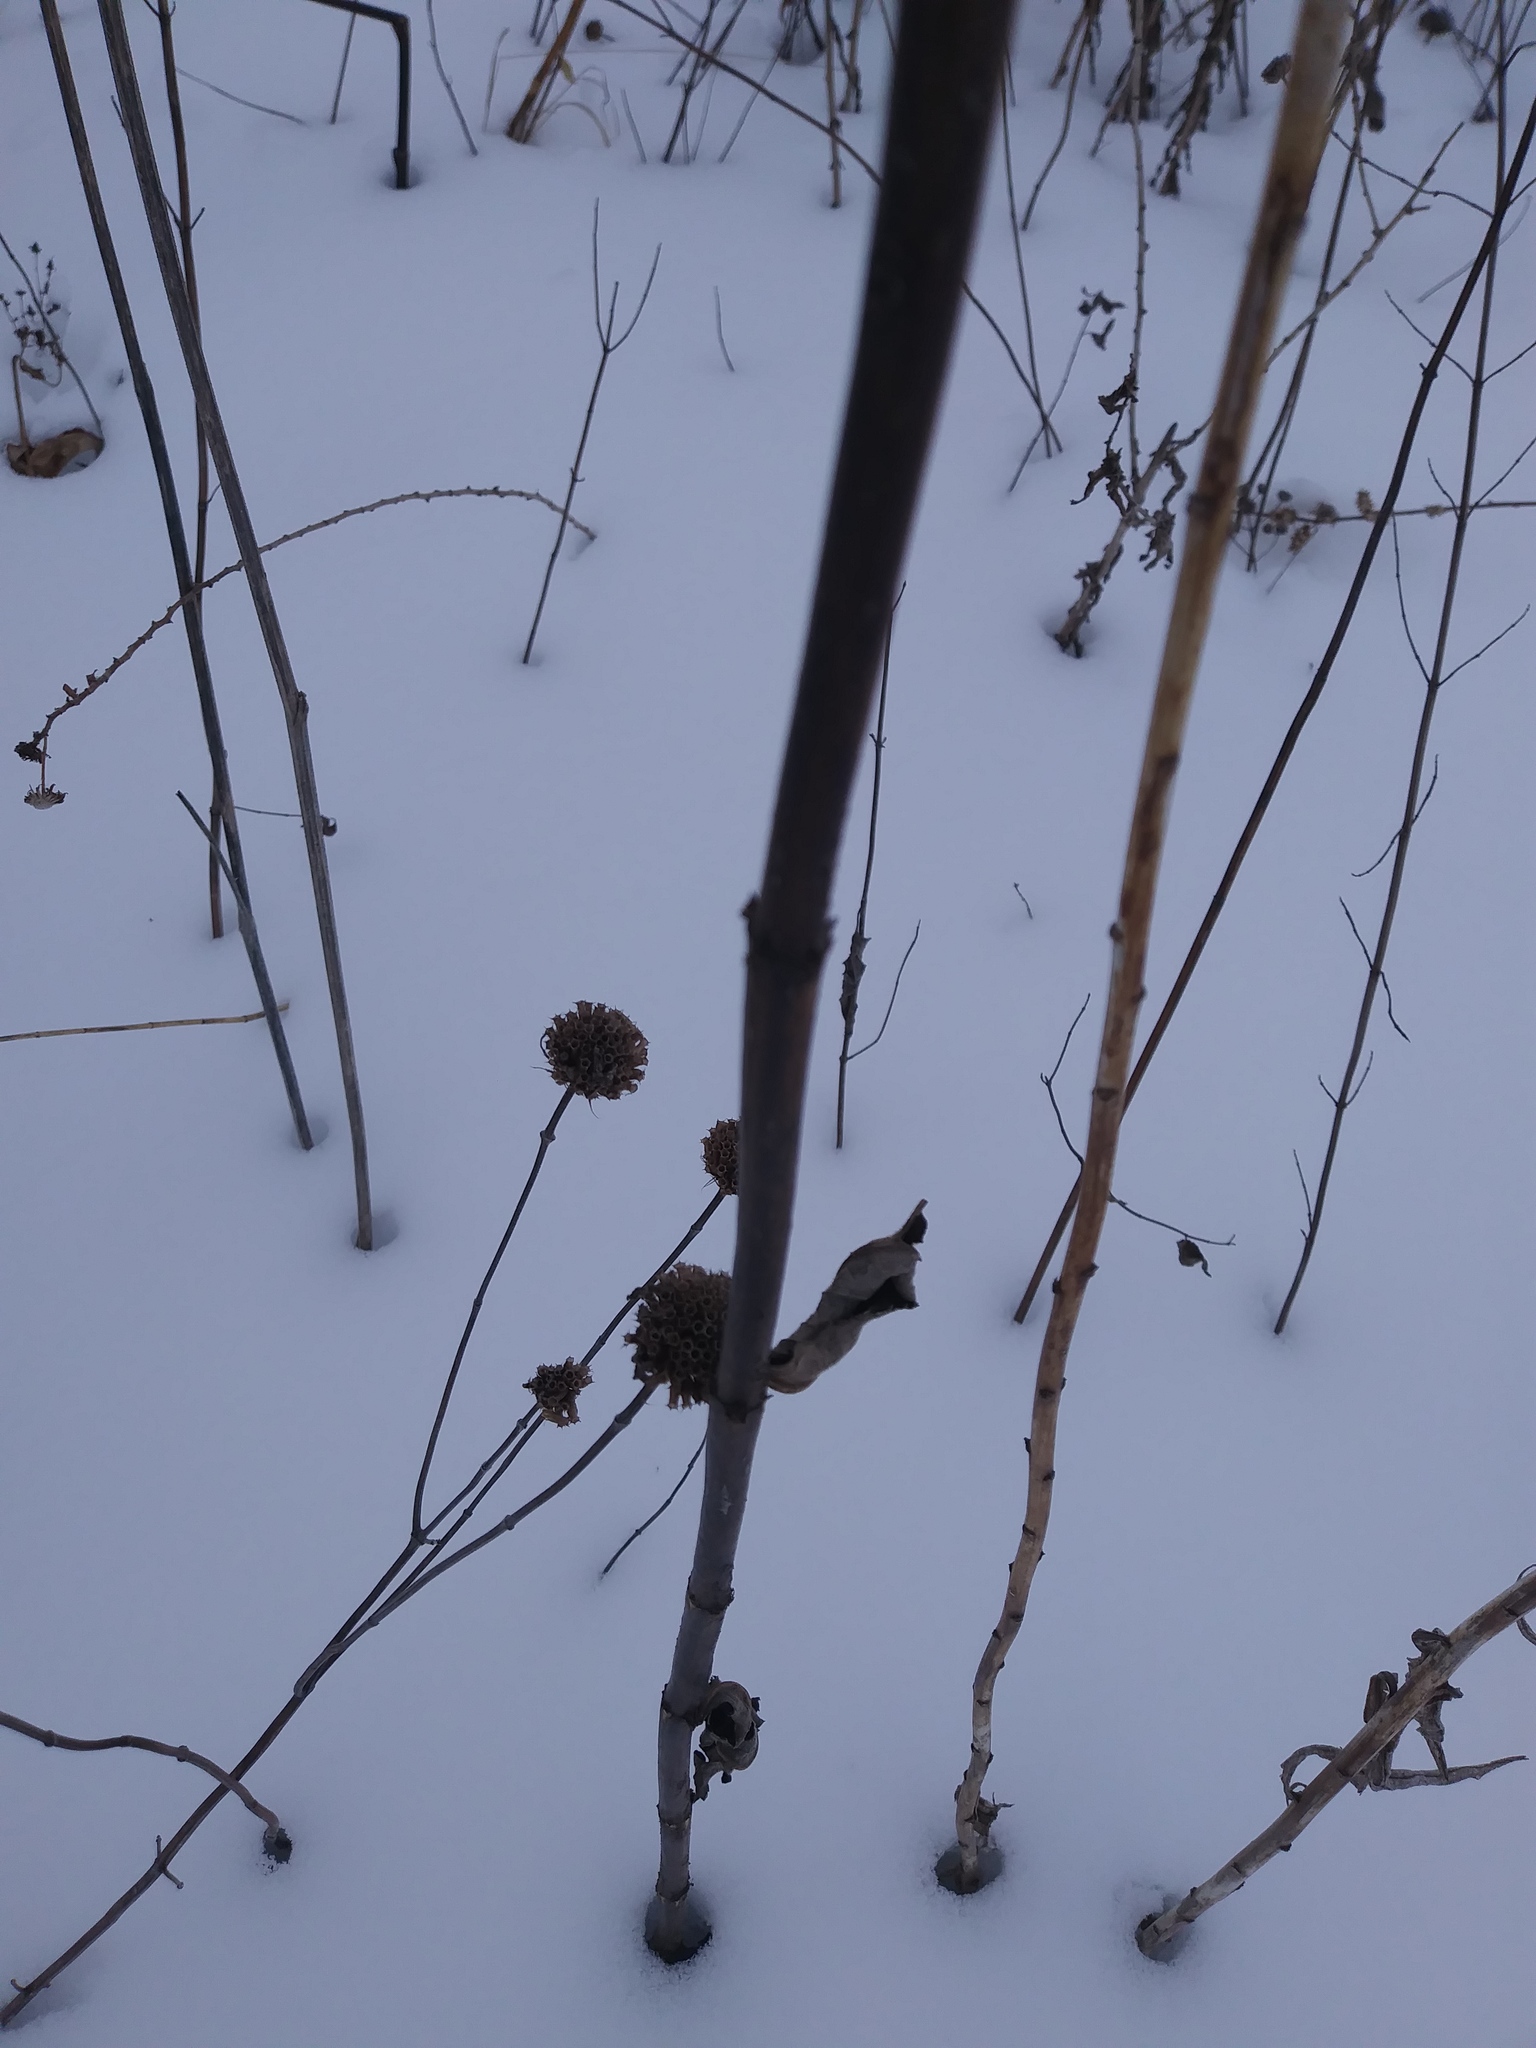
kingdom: Plantae
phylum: Tracheophyta
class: Magnoliopsida
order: Lamiales
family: Plantaginaceae
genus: Veronicastrum
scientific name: Veronicastrum virginicum
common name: Blackroot
